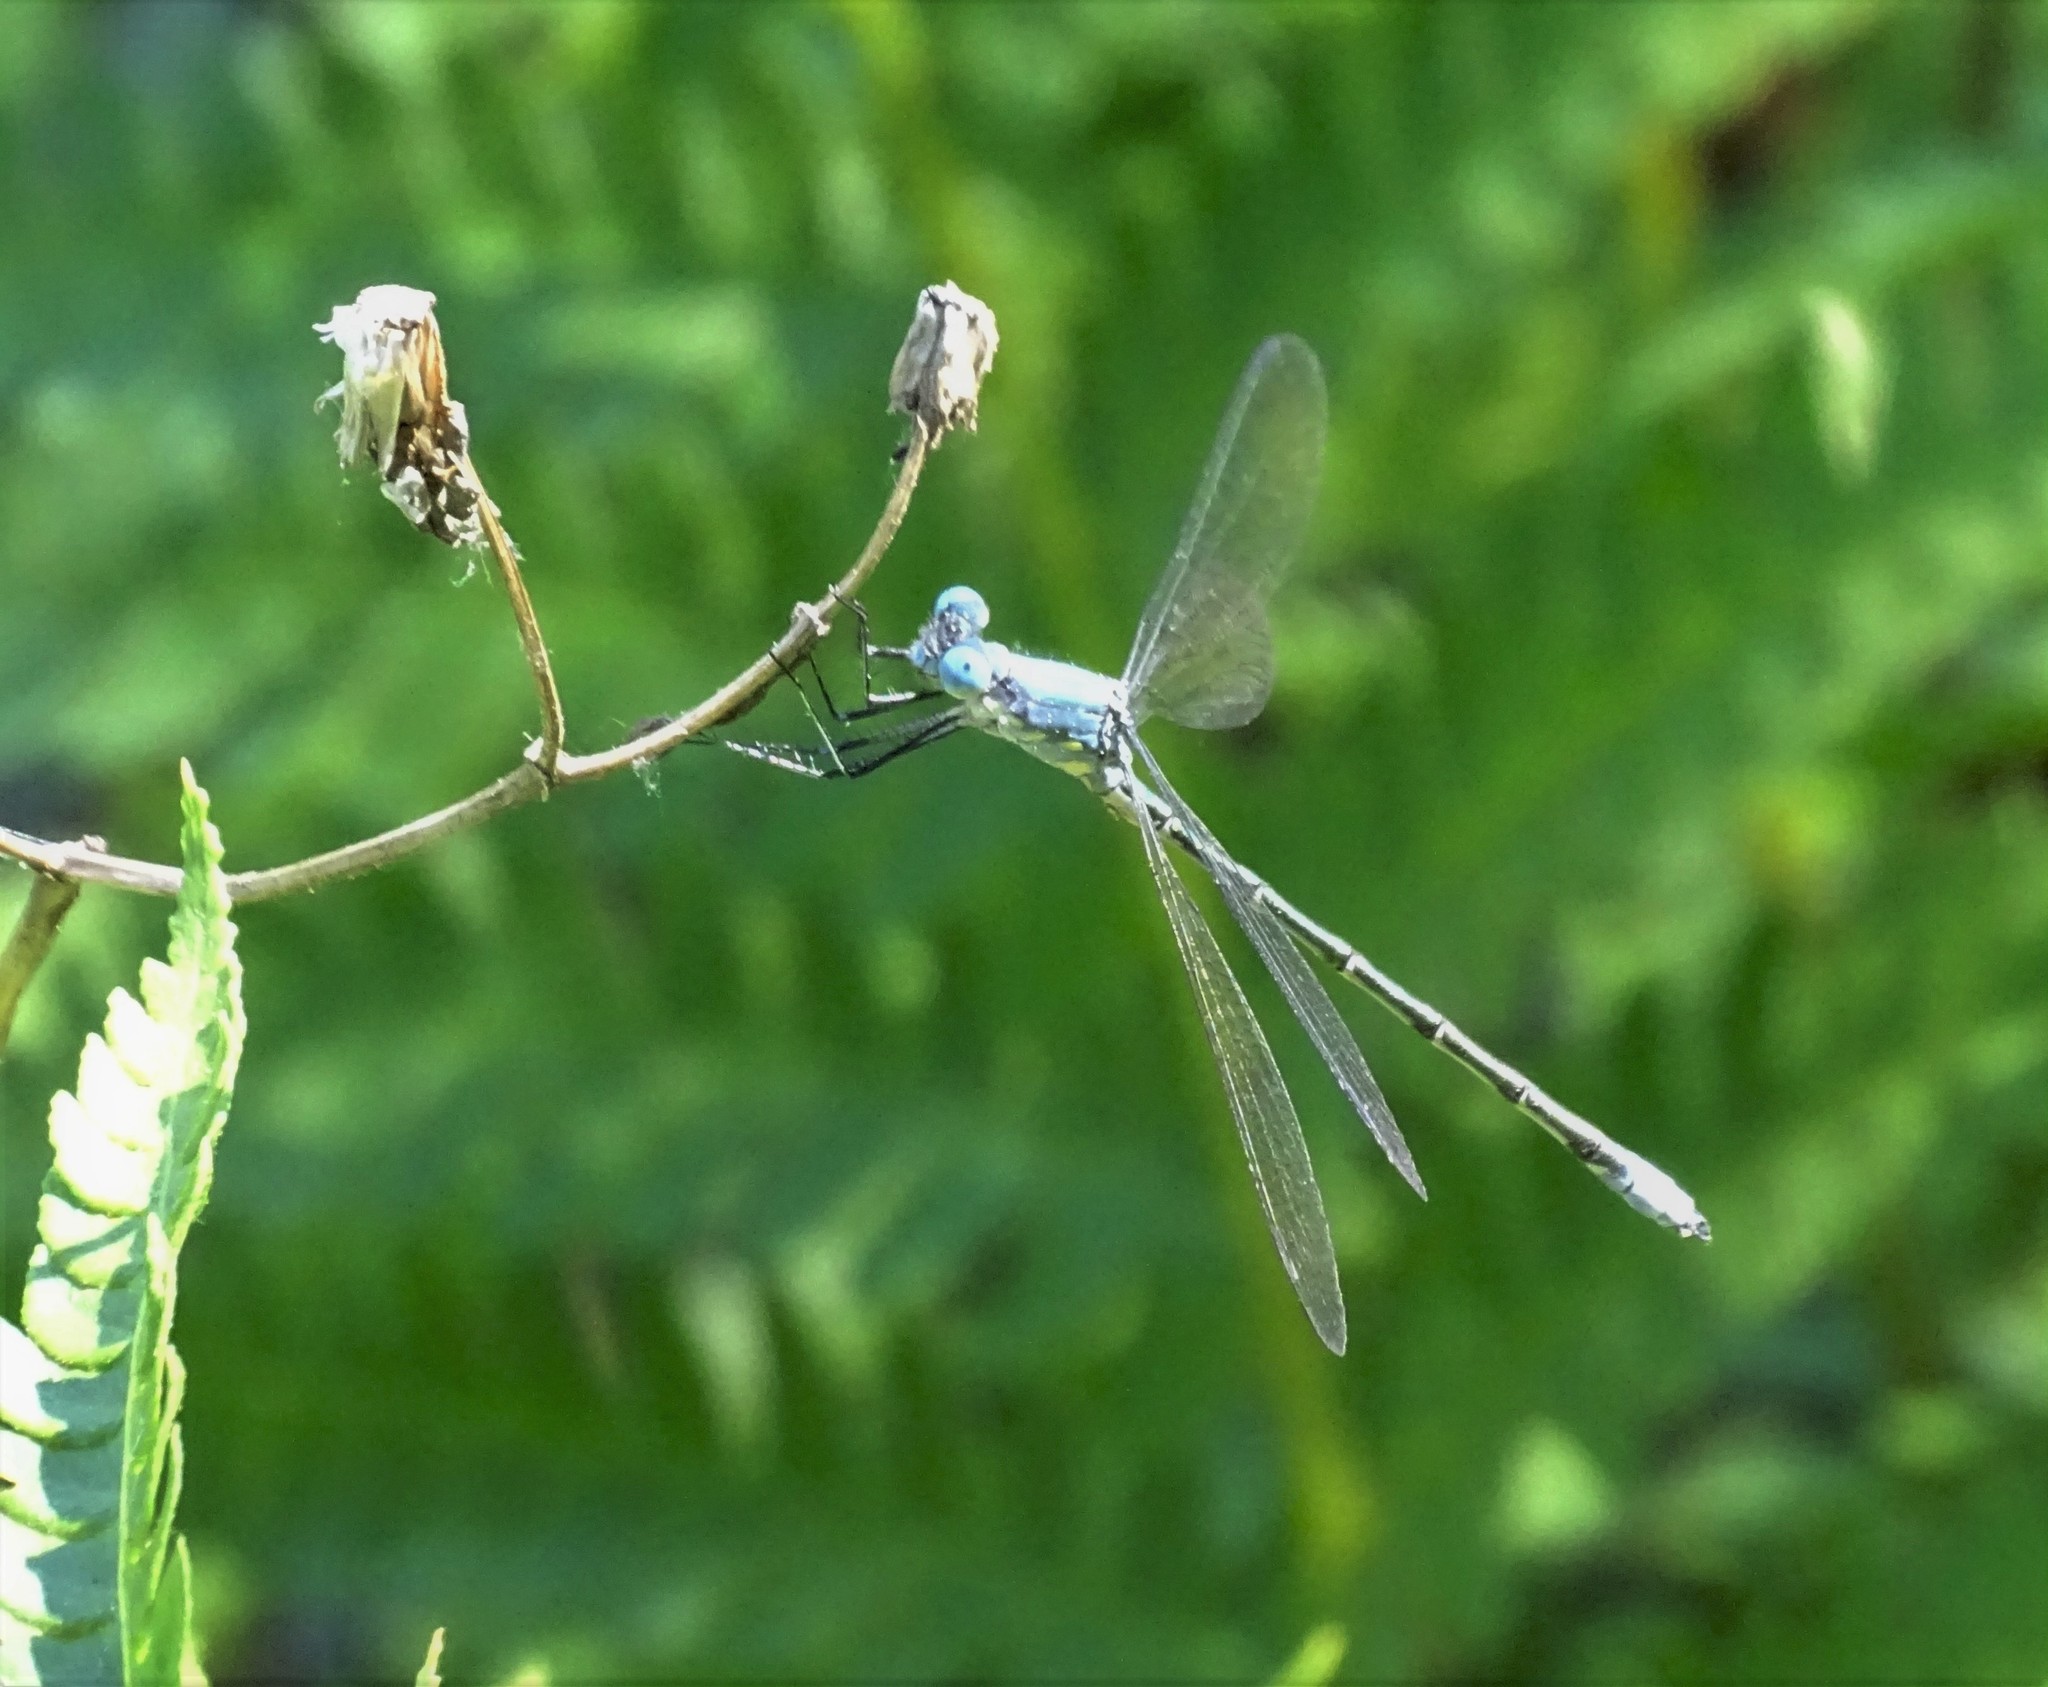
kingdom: Animalia
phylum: Arthropoda
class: Insecta
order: Odonata
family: Lestidae
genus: Lestes
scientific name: Lestes eurinus
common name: Amber-winged spreadwing
